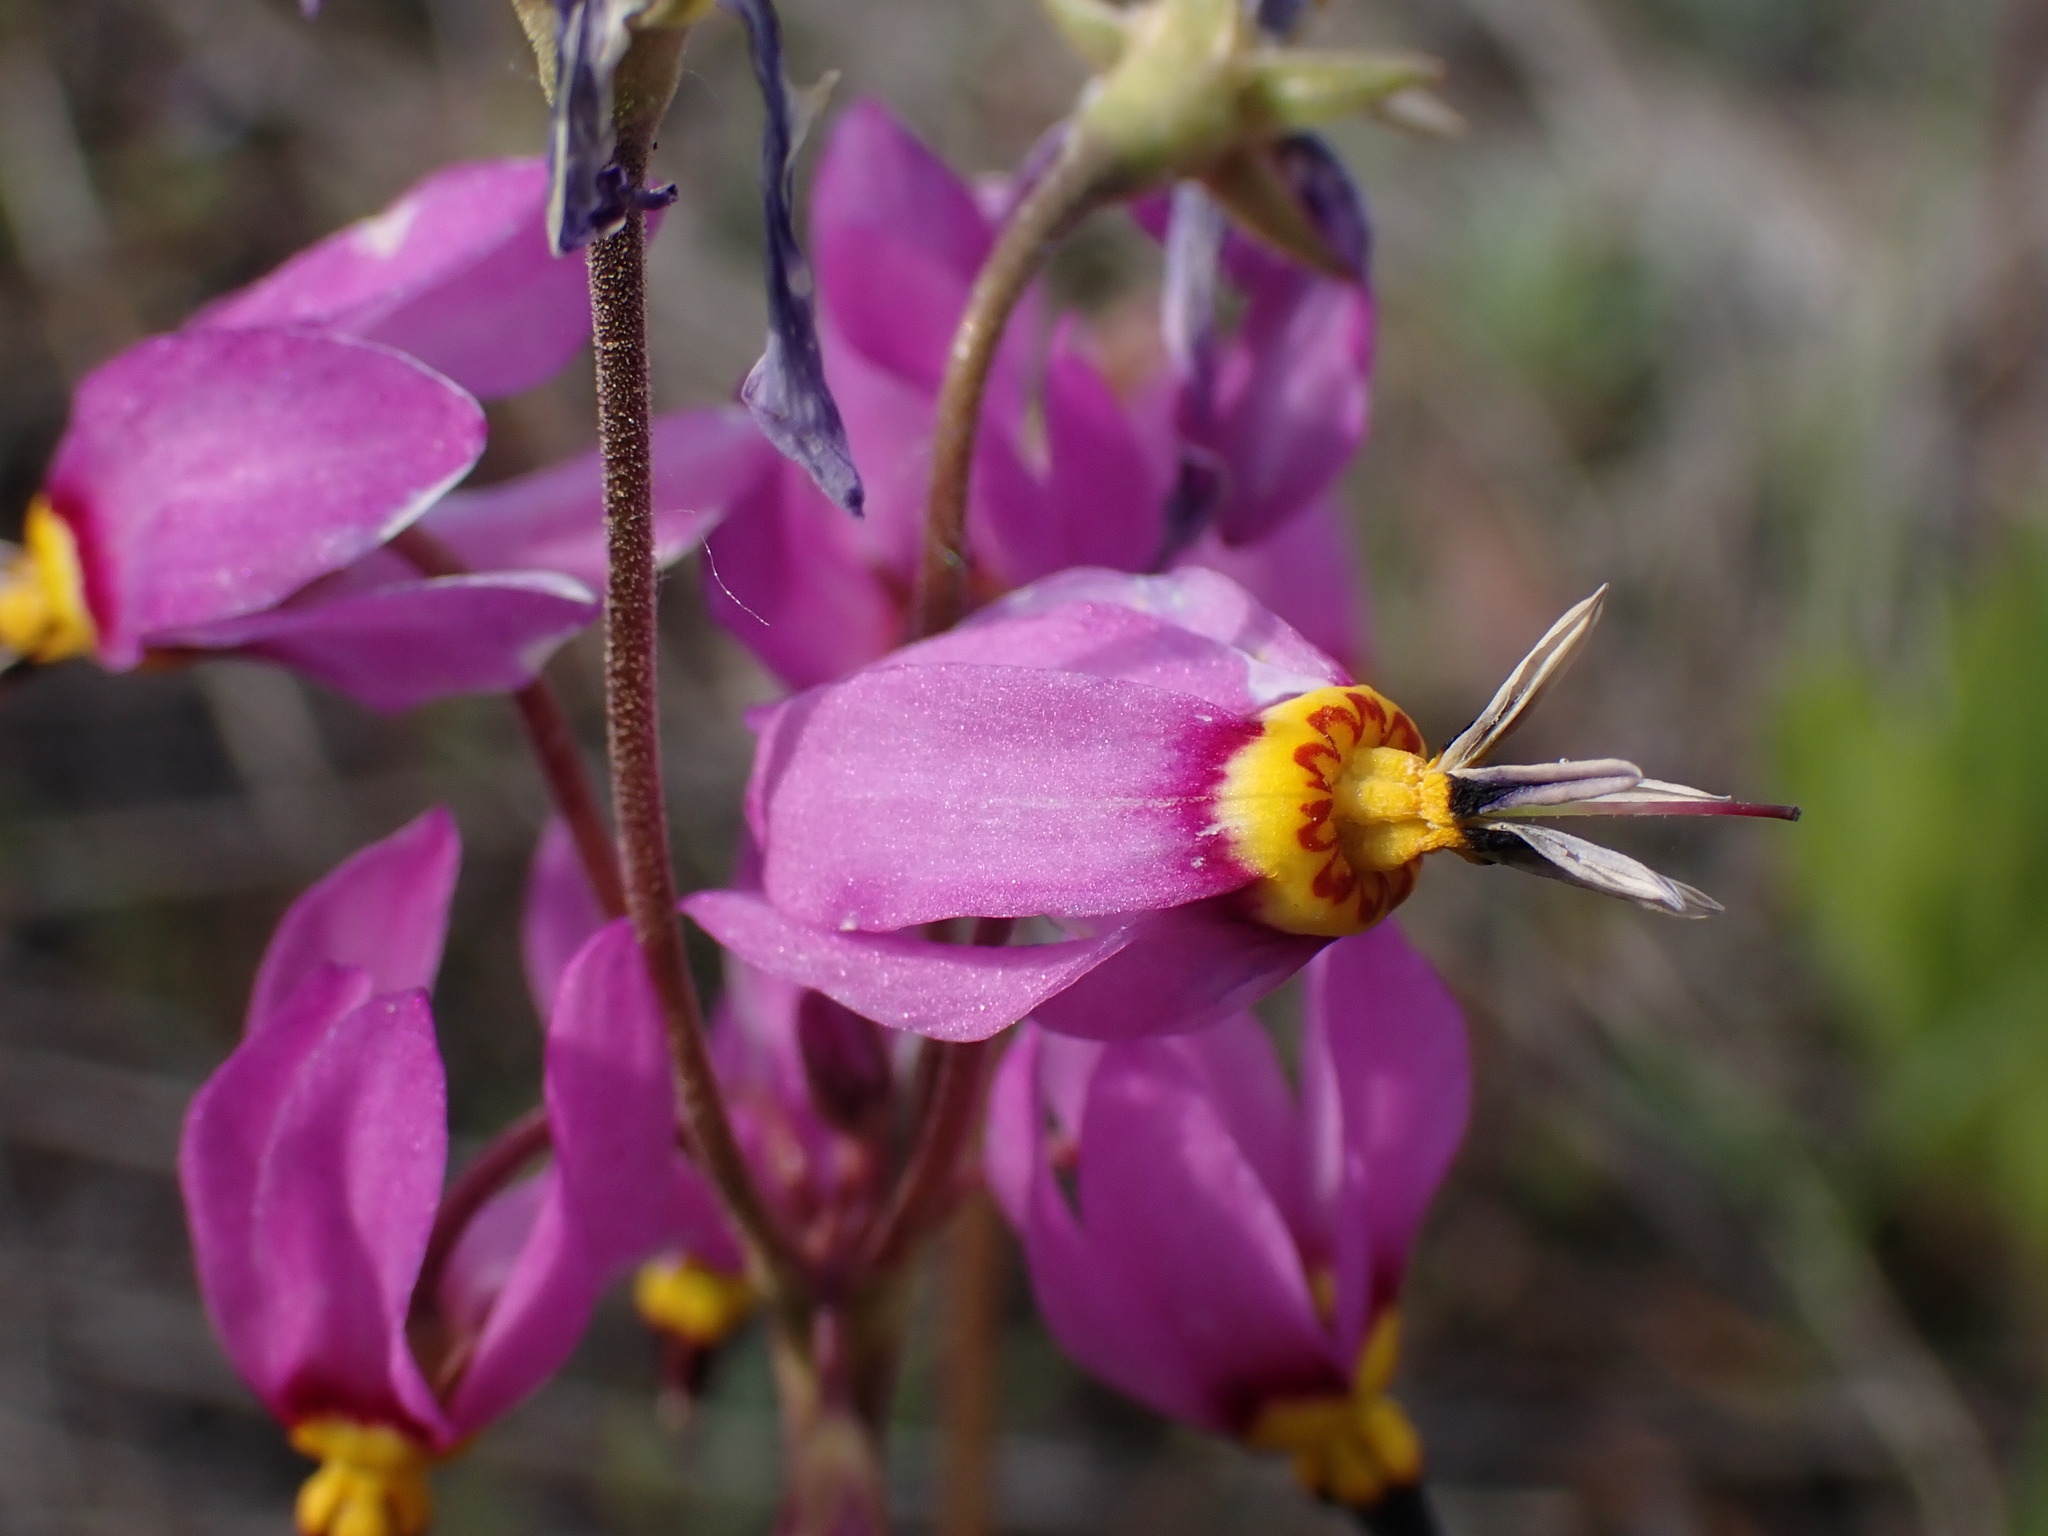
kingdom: Plantae
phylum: Tracheophyta
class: Magnoliopsida
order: Ericales
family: Primulaceae
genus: Dodecatheon
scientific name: Dodecatheon pulchellum
